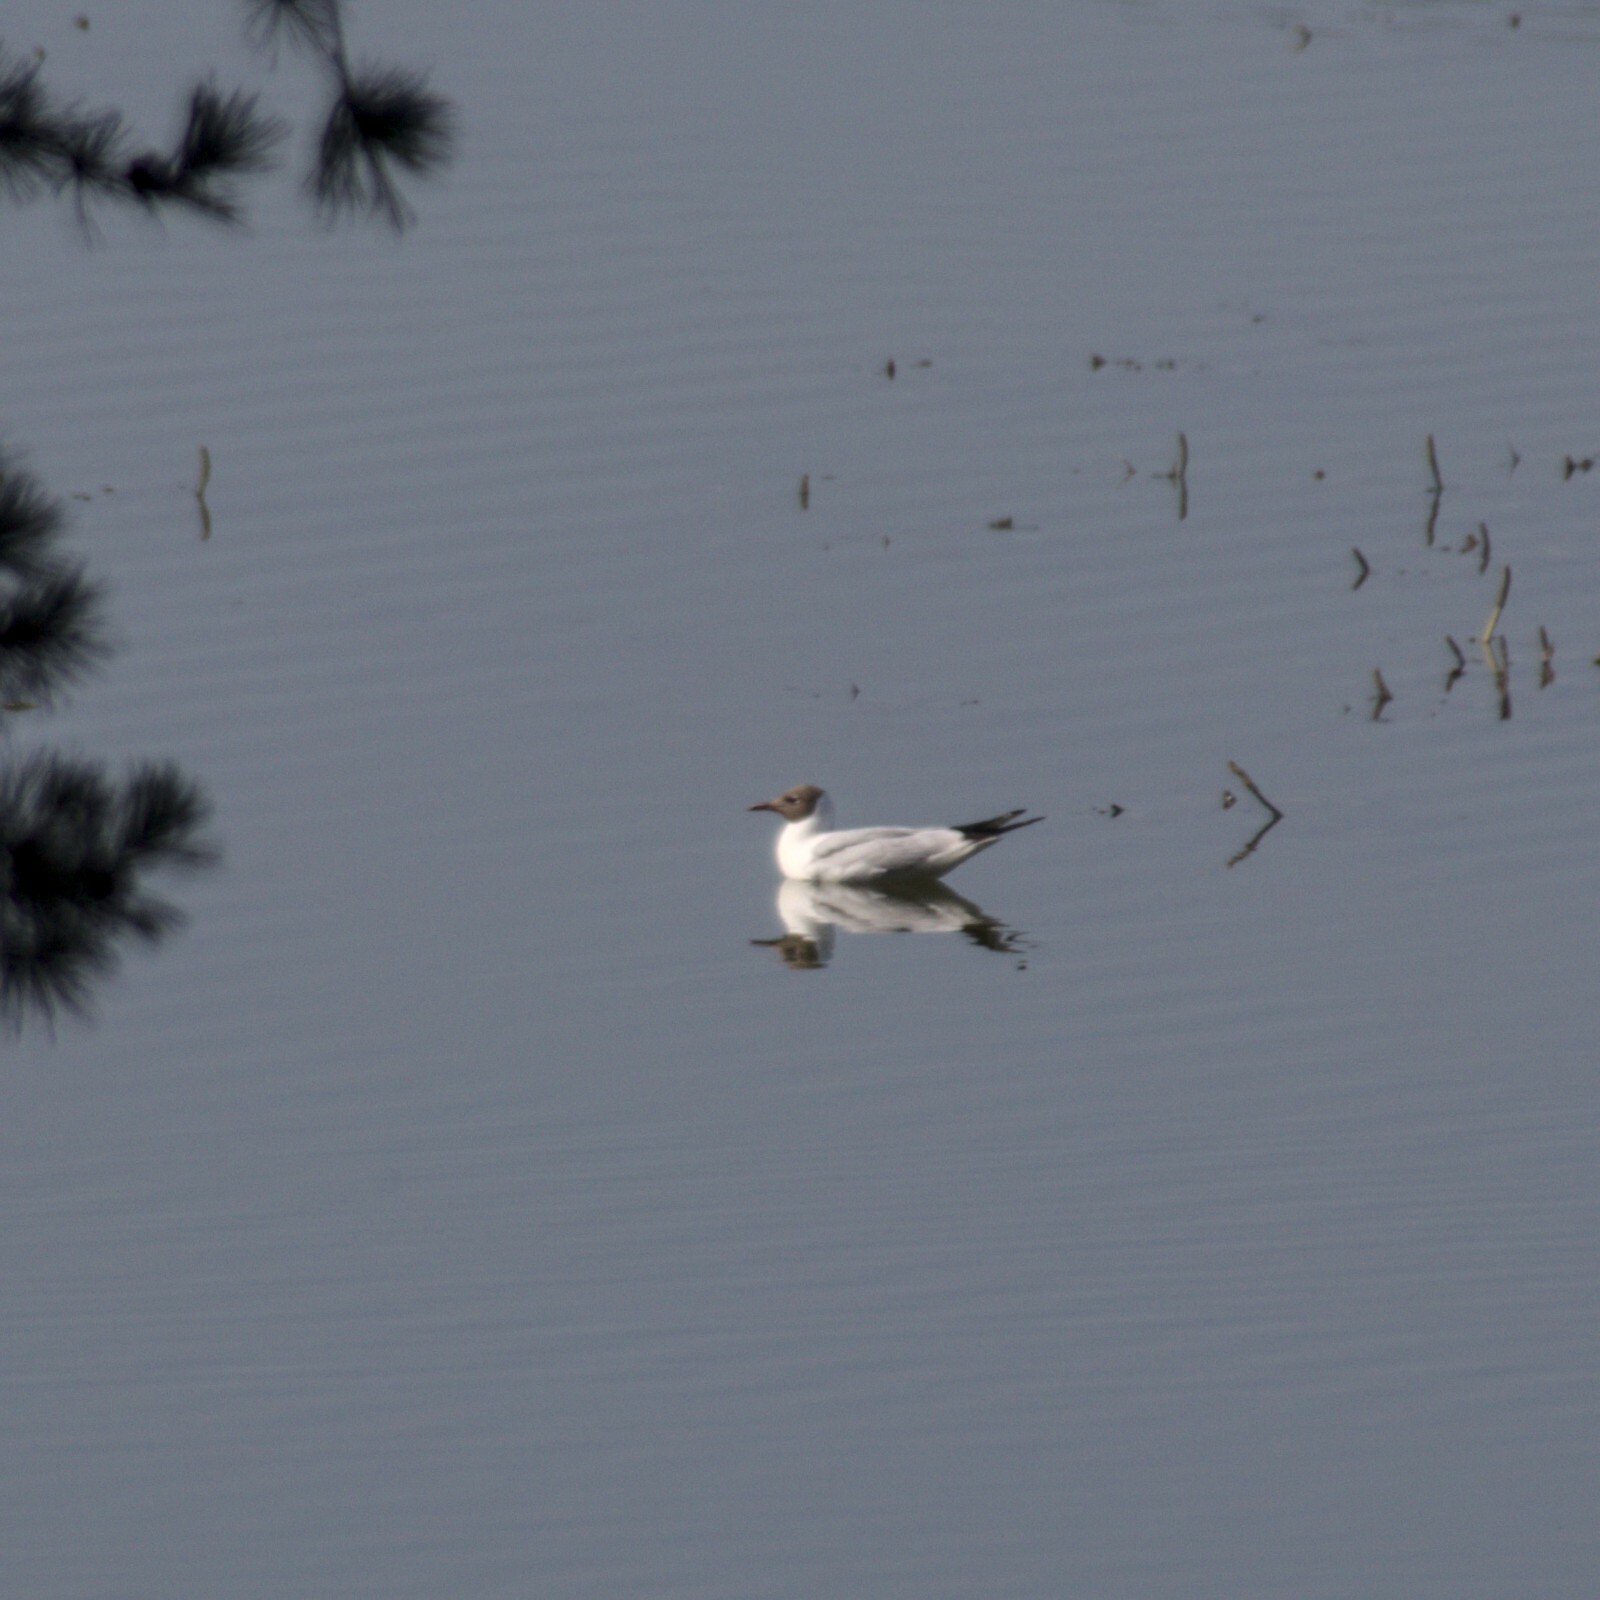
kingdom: Animalia
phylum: Chordata
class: Aves
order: Charadriiformes
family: Laridae
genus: Chroicocephalus
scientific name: Chroicocephalus ridibundus
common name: Black-headed gull
